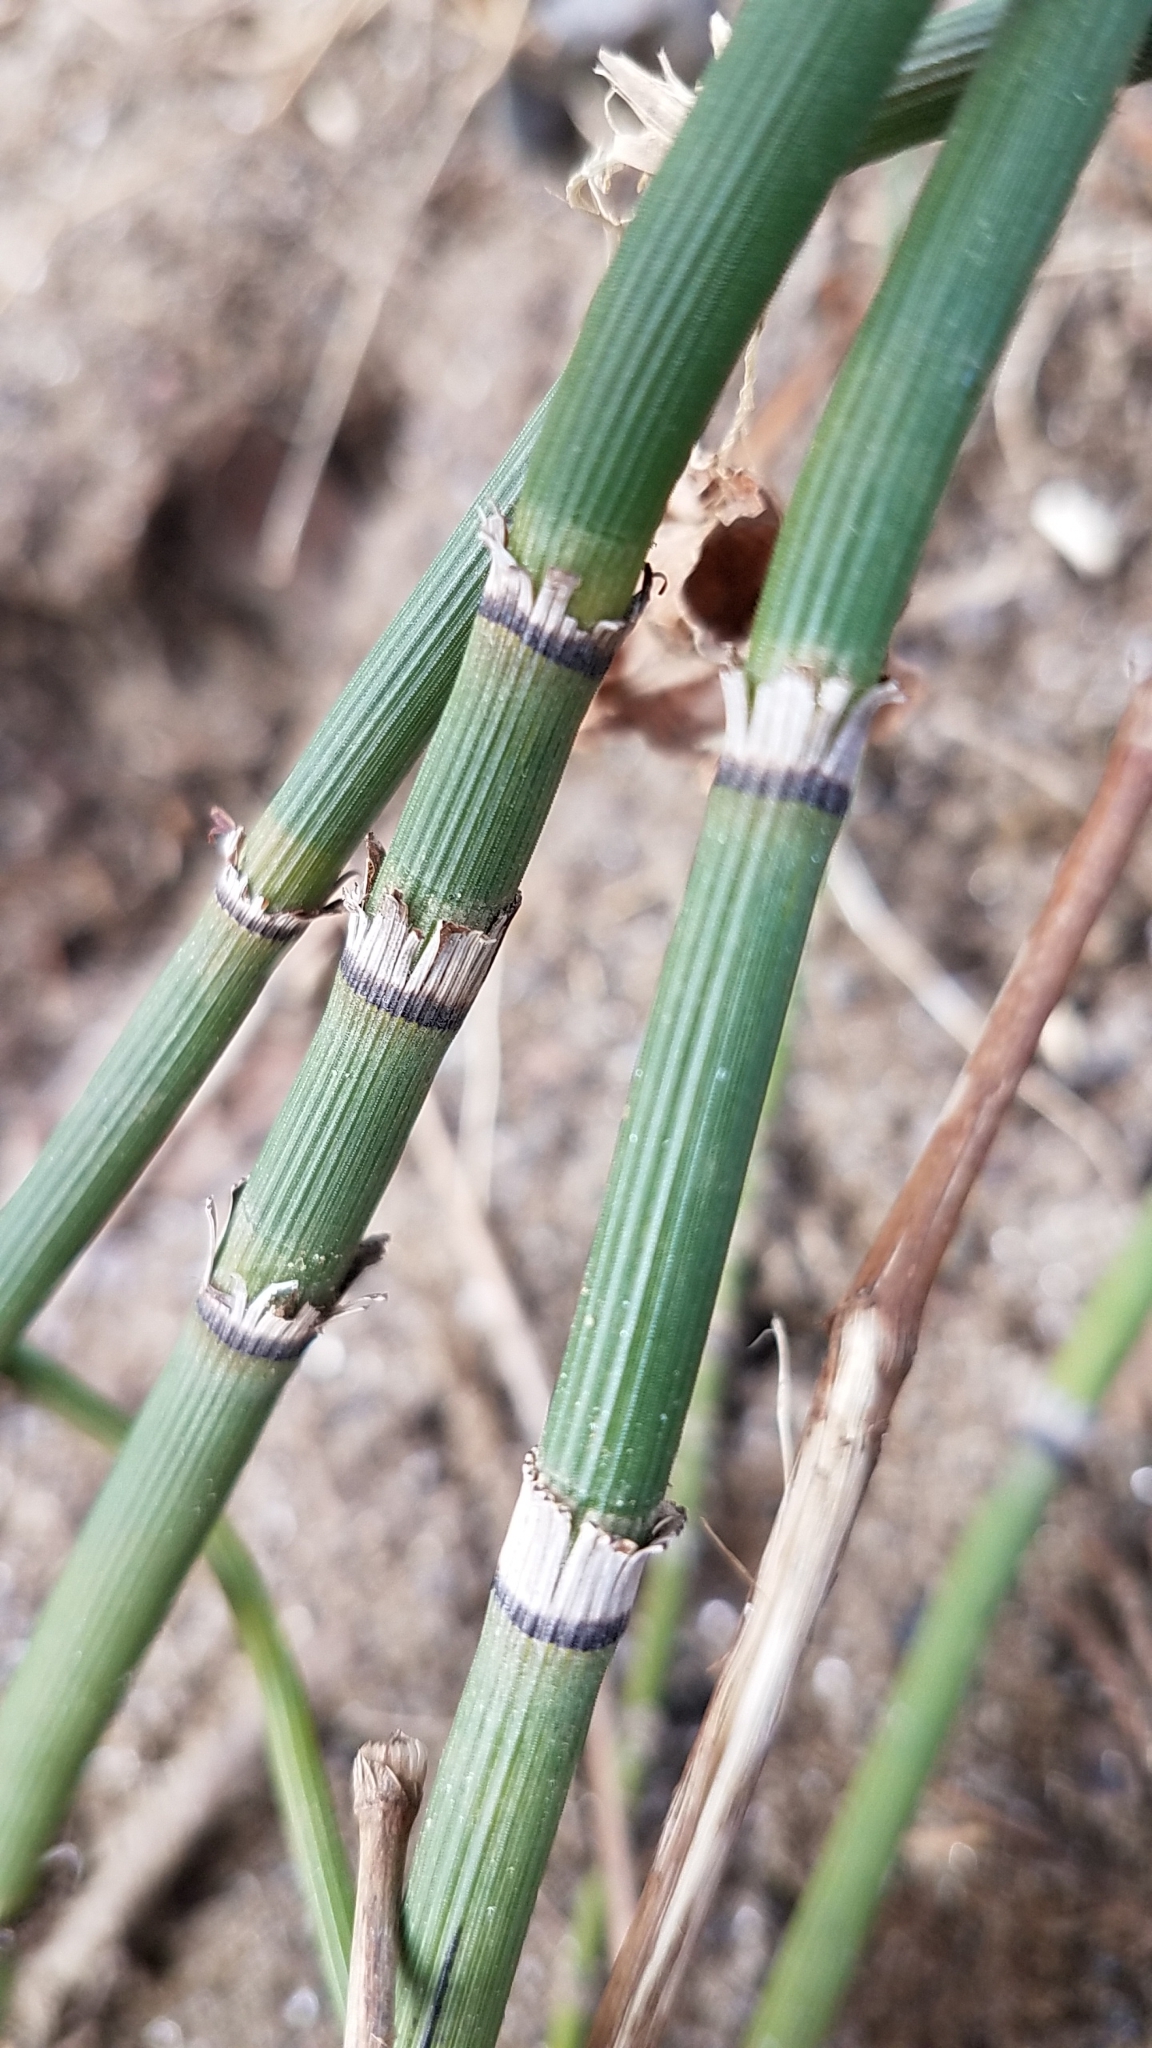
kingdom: Plantae
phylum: Tracheophyta
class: Polypodiopsida
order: Equisetales
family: Equisetaceae
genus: Equisetum
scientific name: Equisetum hyemale
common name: Rough horsetail
